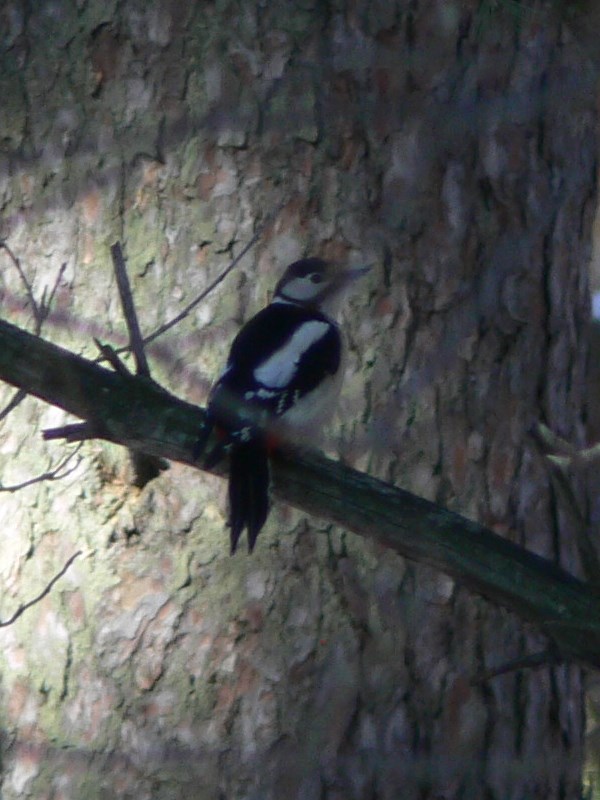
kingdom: Animalia
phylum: Chordata
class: Aves
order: Piciformes
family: Picidae
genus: Dendrocopos
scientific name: Dendrocopos major
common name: Great spotted woodpecker
